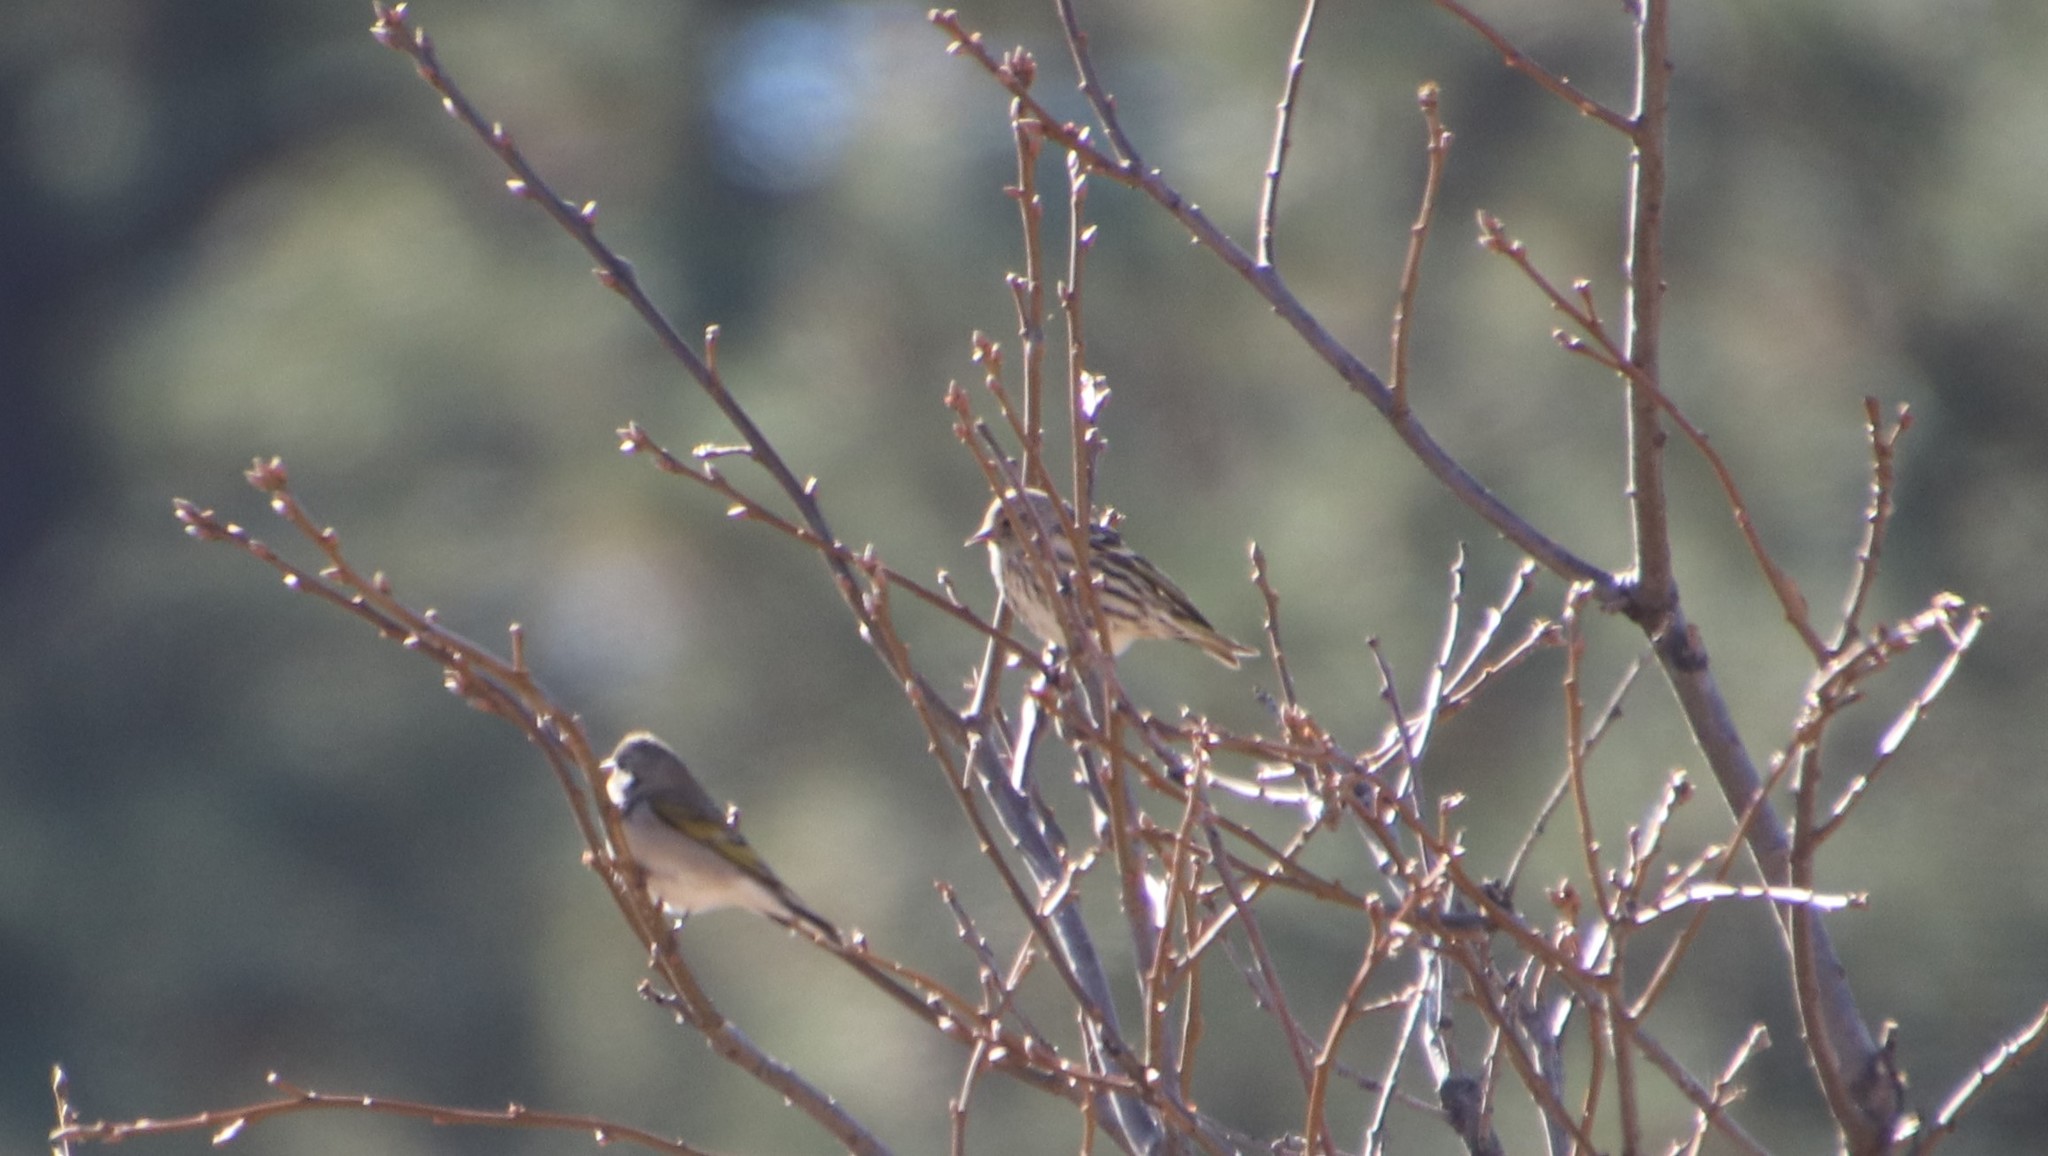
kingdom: Animalia
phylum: Chordata
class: Aves
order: Passeriformes
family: Fringillidae
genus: Spinus
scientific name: Spinus pinus
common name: Pine siskin
